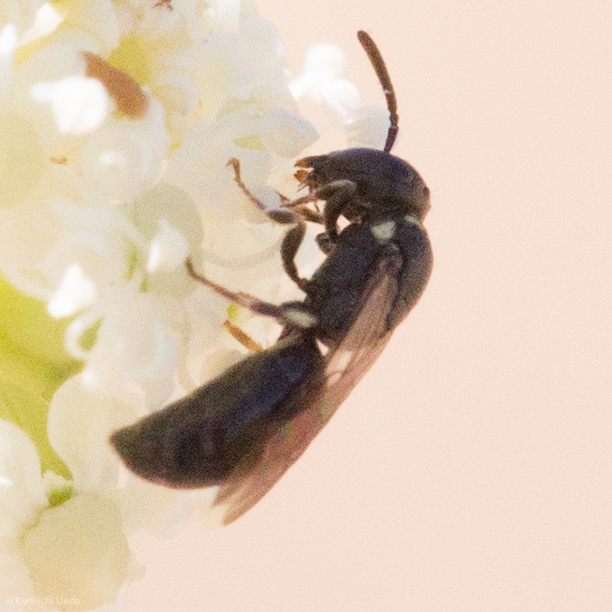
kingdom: Animalia
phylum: Arthropoda
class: Insecta
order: Hymenoptera
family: Colletidae
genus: Hylaeus
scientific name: Hylaeus
